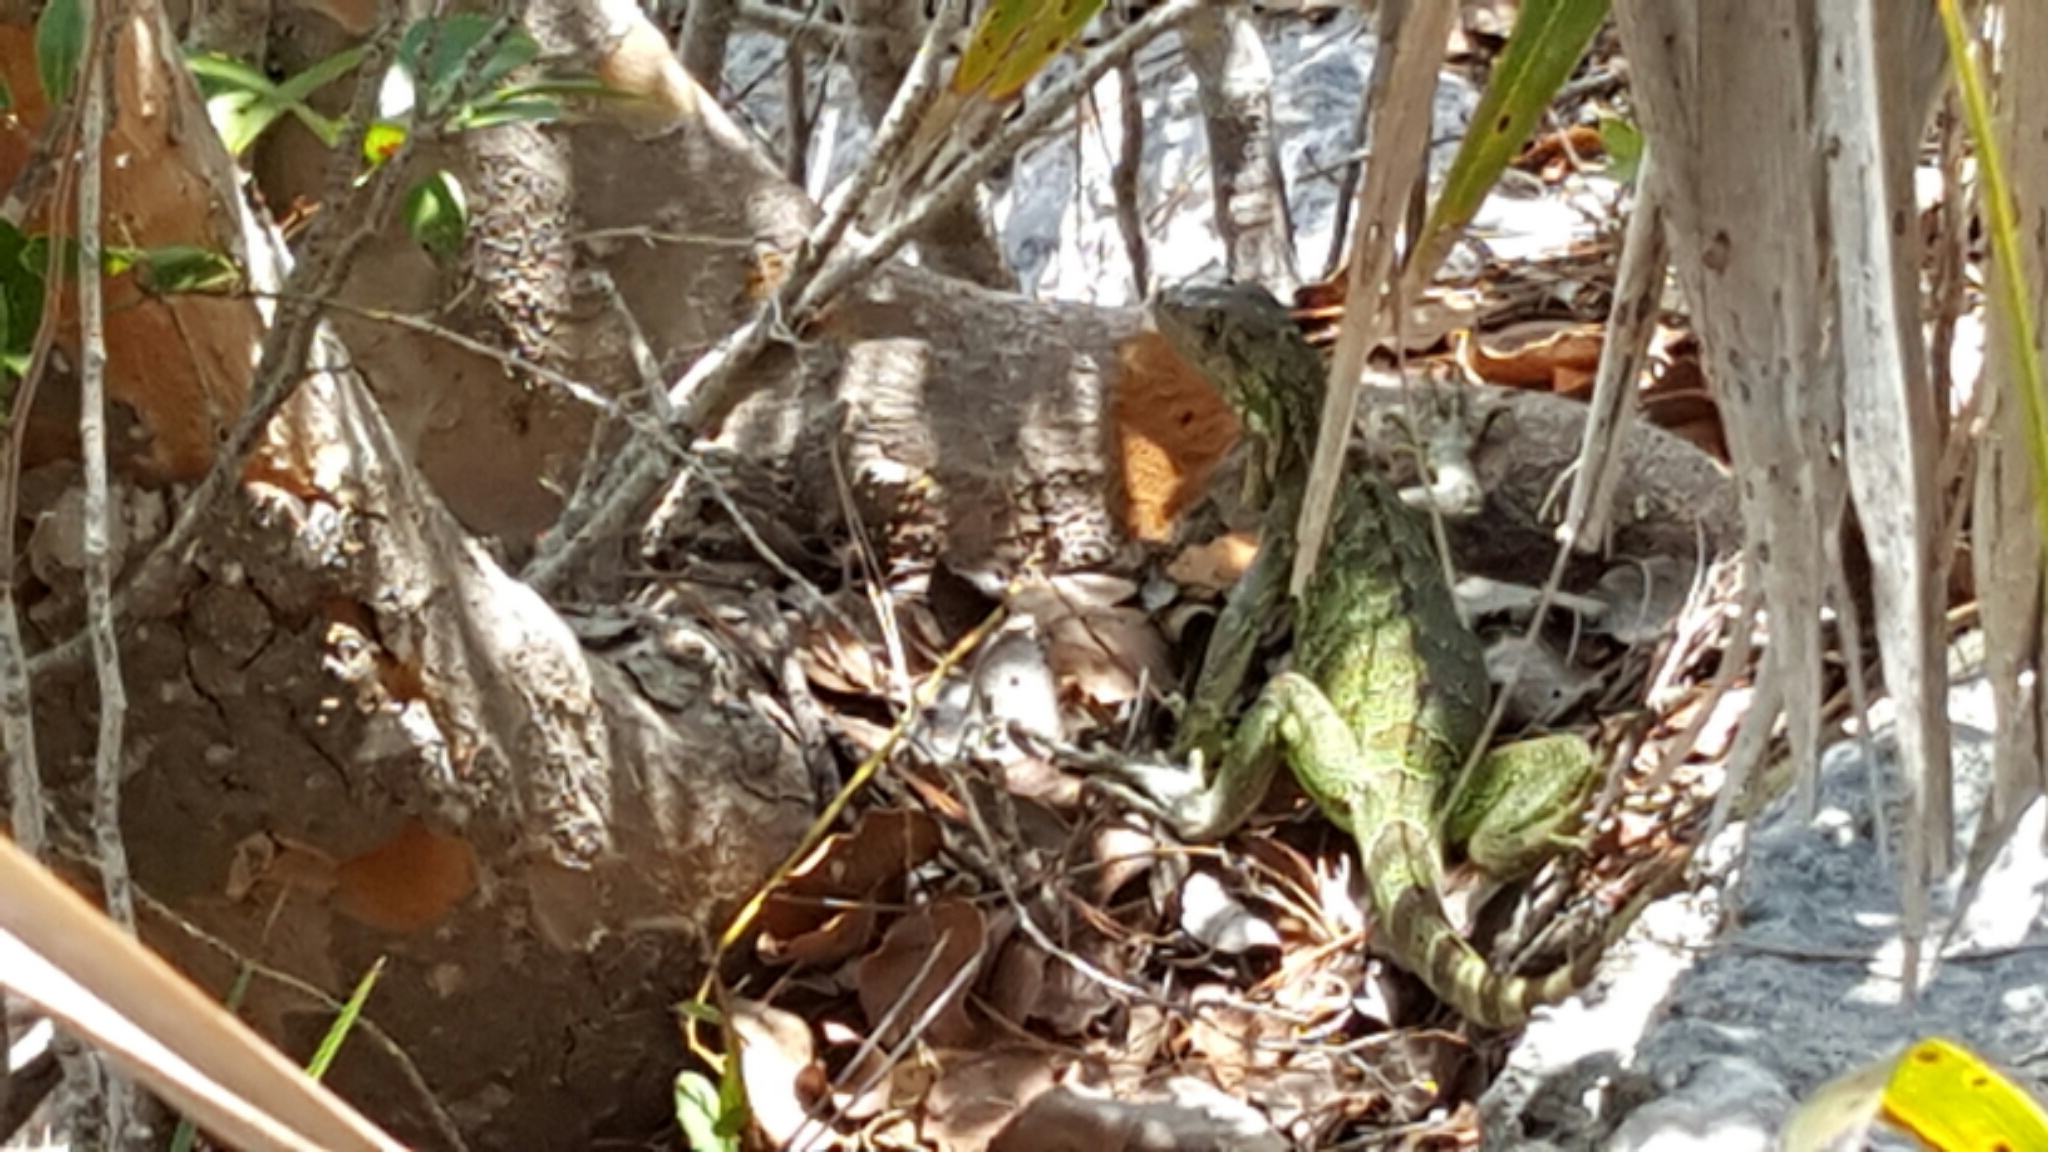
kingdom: Animalia
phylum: Chordata
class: Squamata
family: Iguanidae
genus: Iguana
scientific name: Iguana iguana
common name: Green iguana
